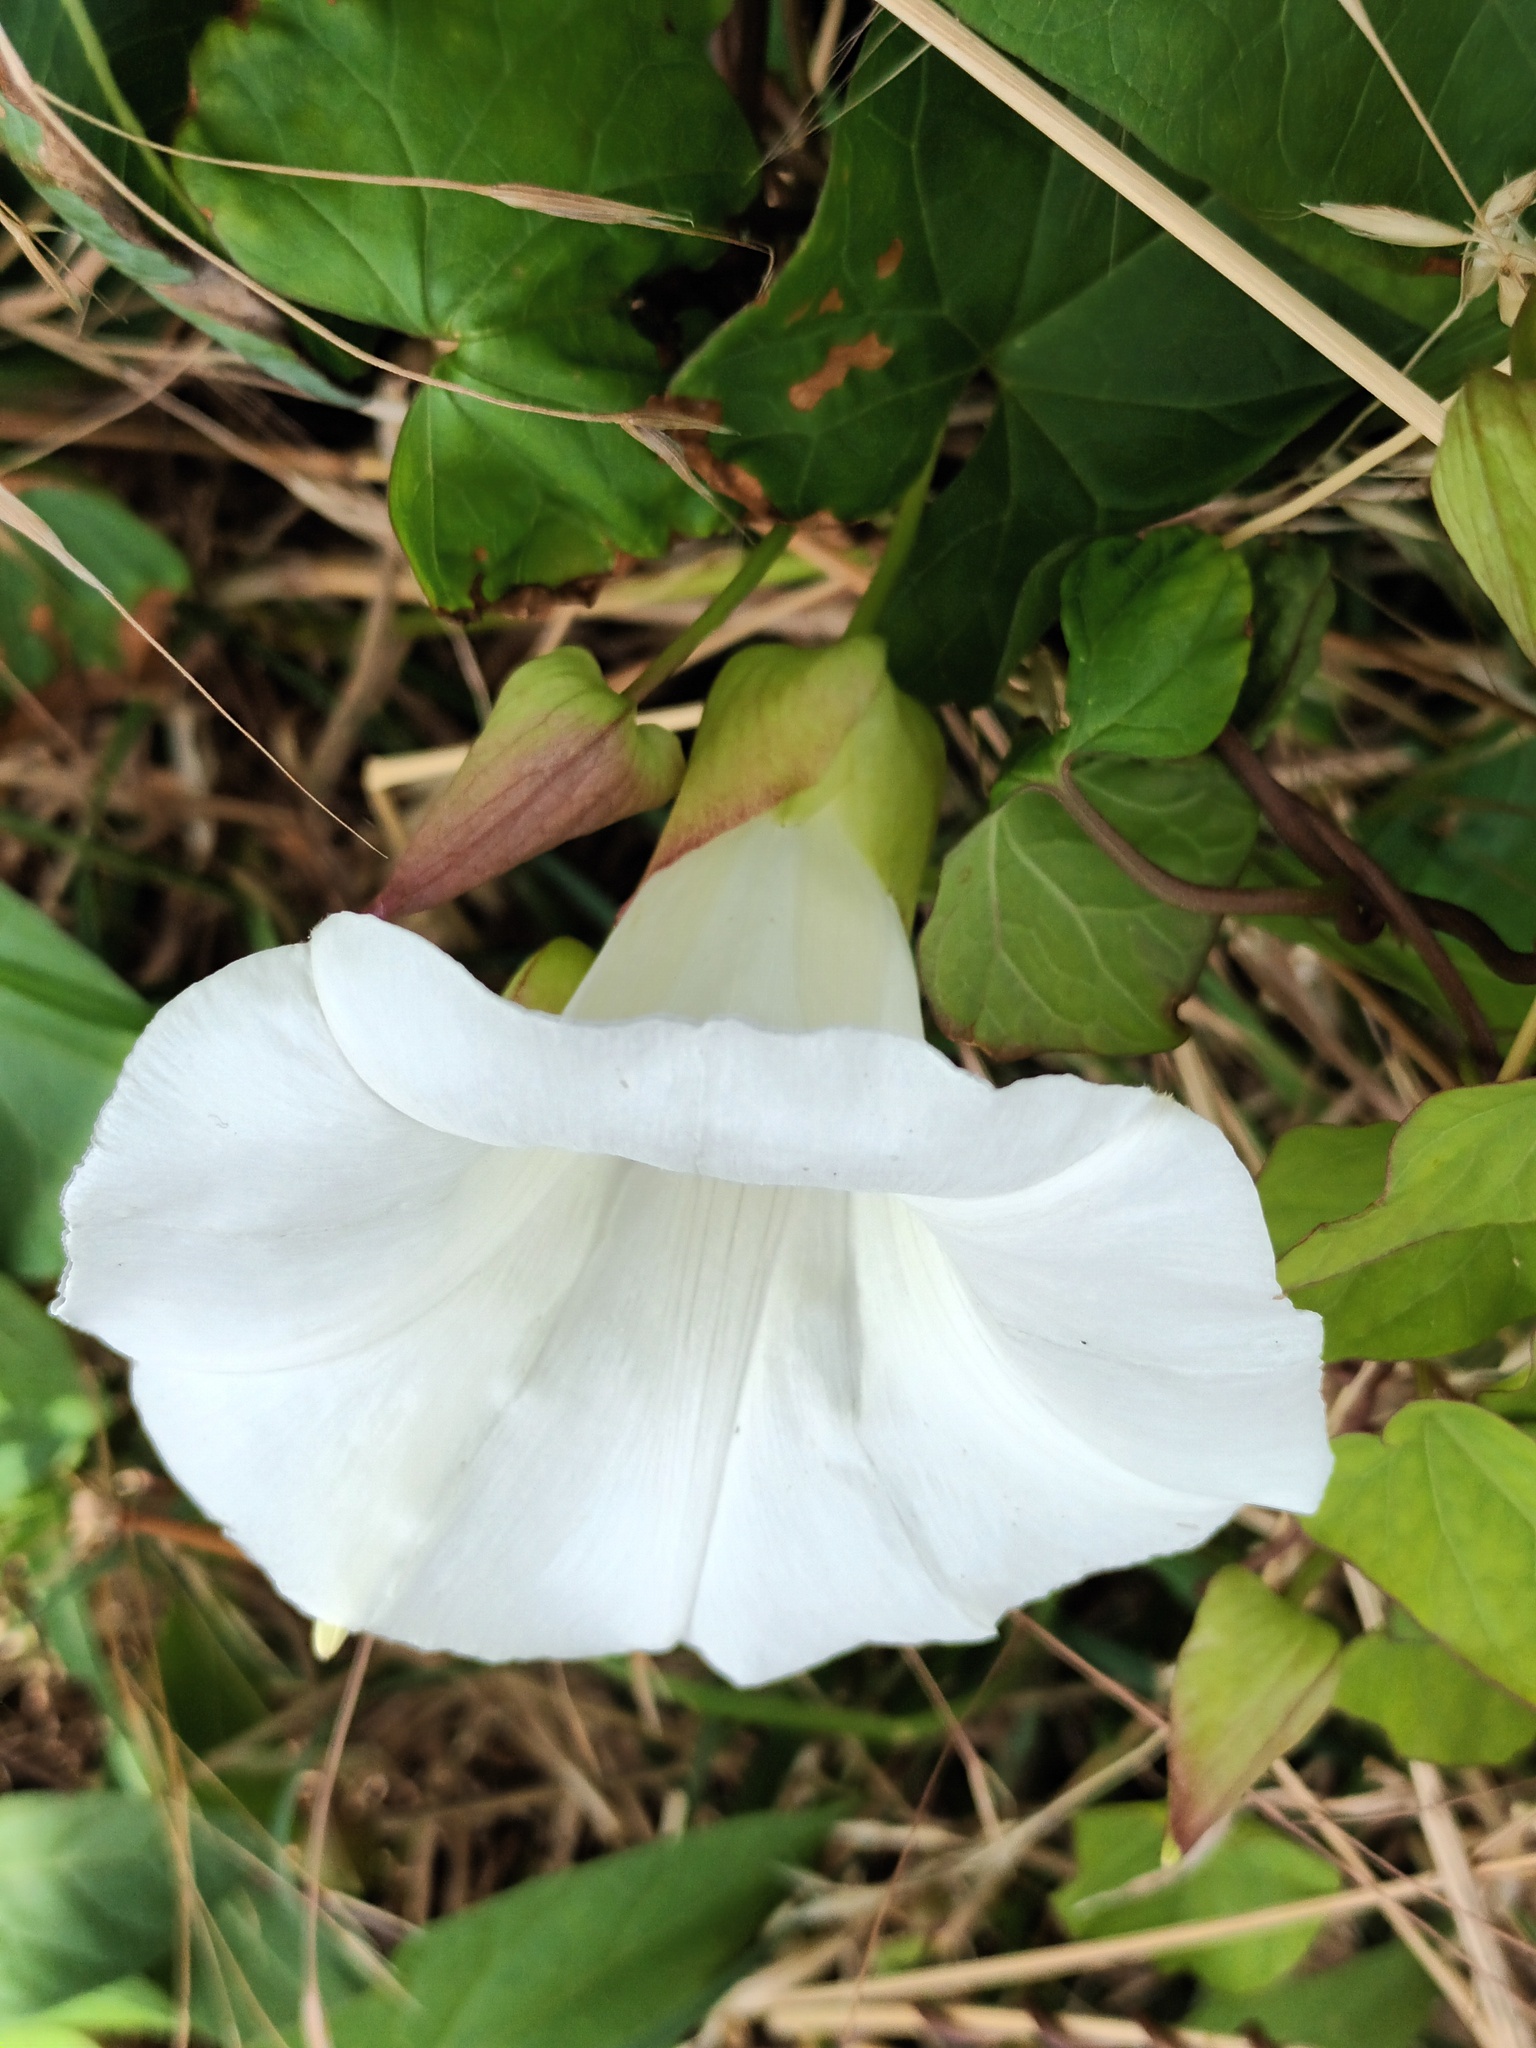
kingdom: Plantae
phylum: Tracheophyta
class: Magnoliopsida
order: Solanales
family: Convolvulaceae
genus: Calystegia
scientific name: Calystegia silvatica
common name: Large bindweed
